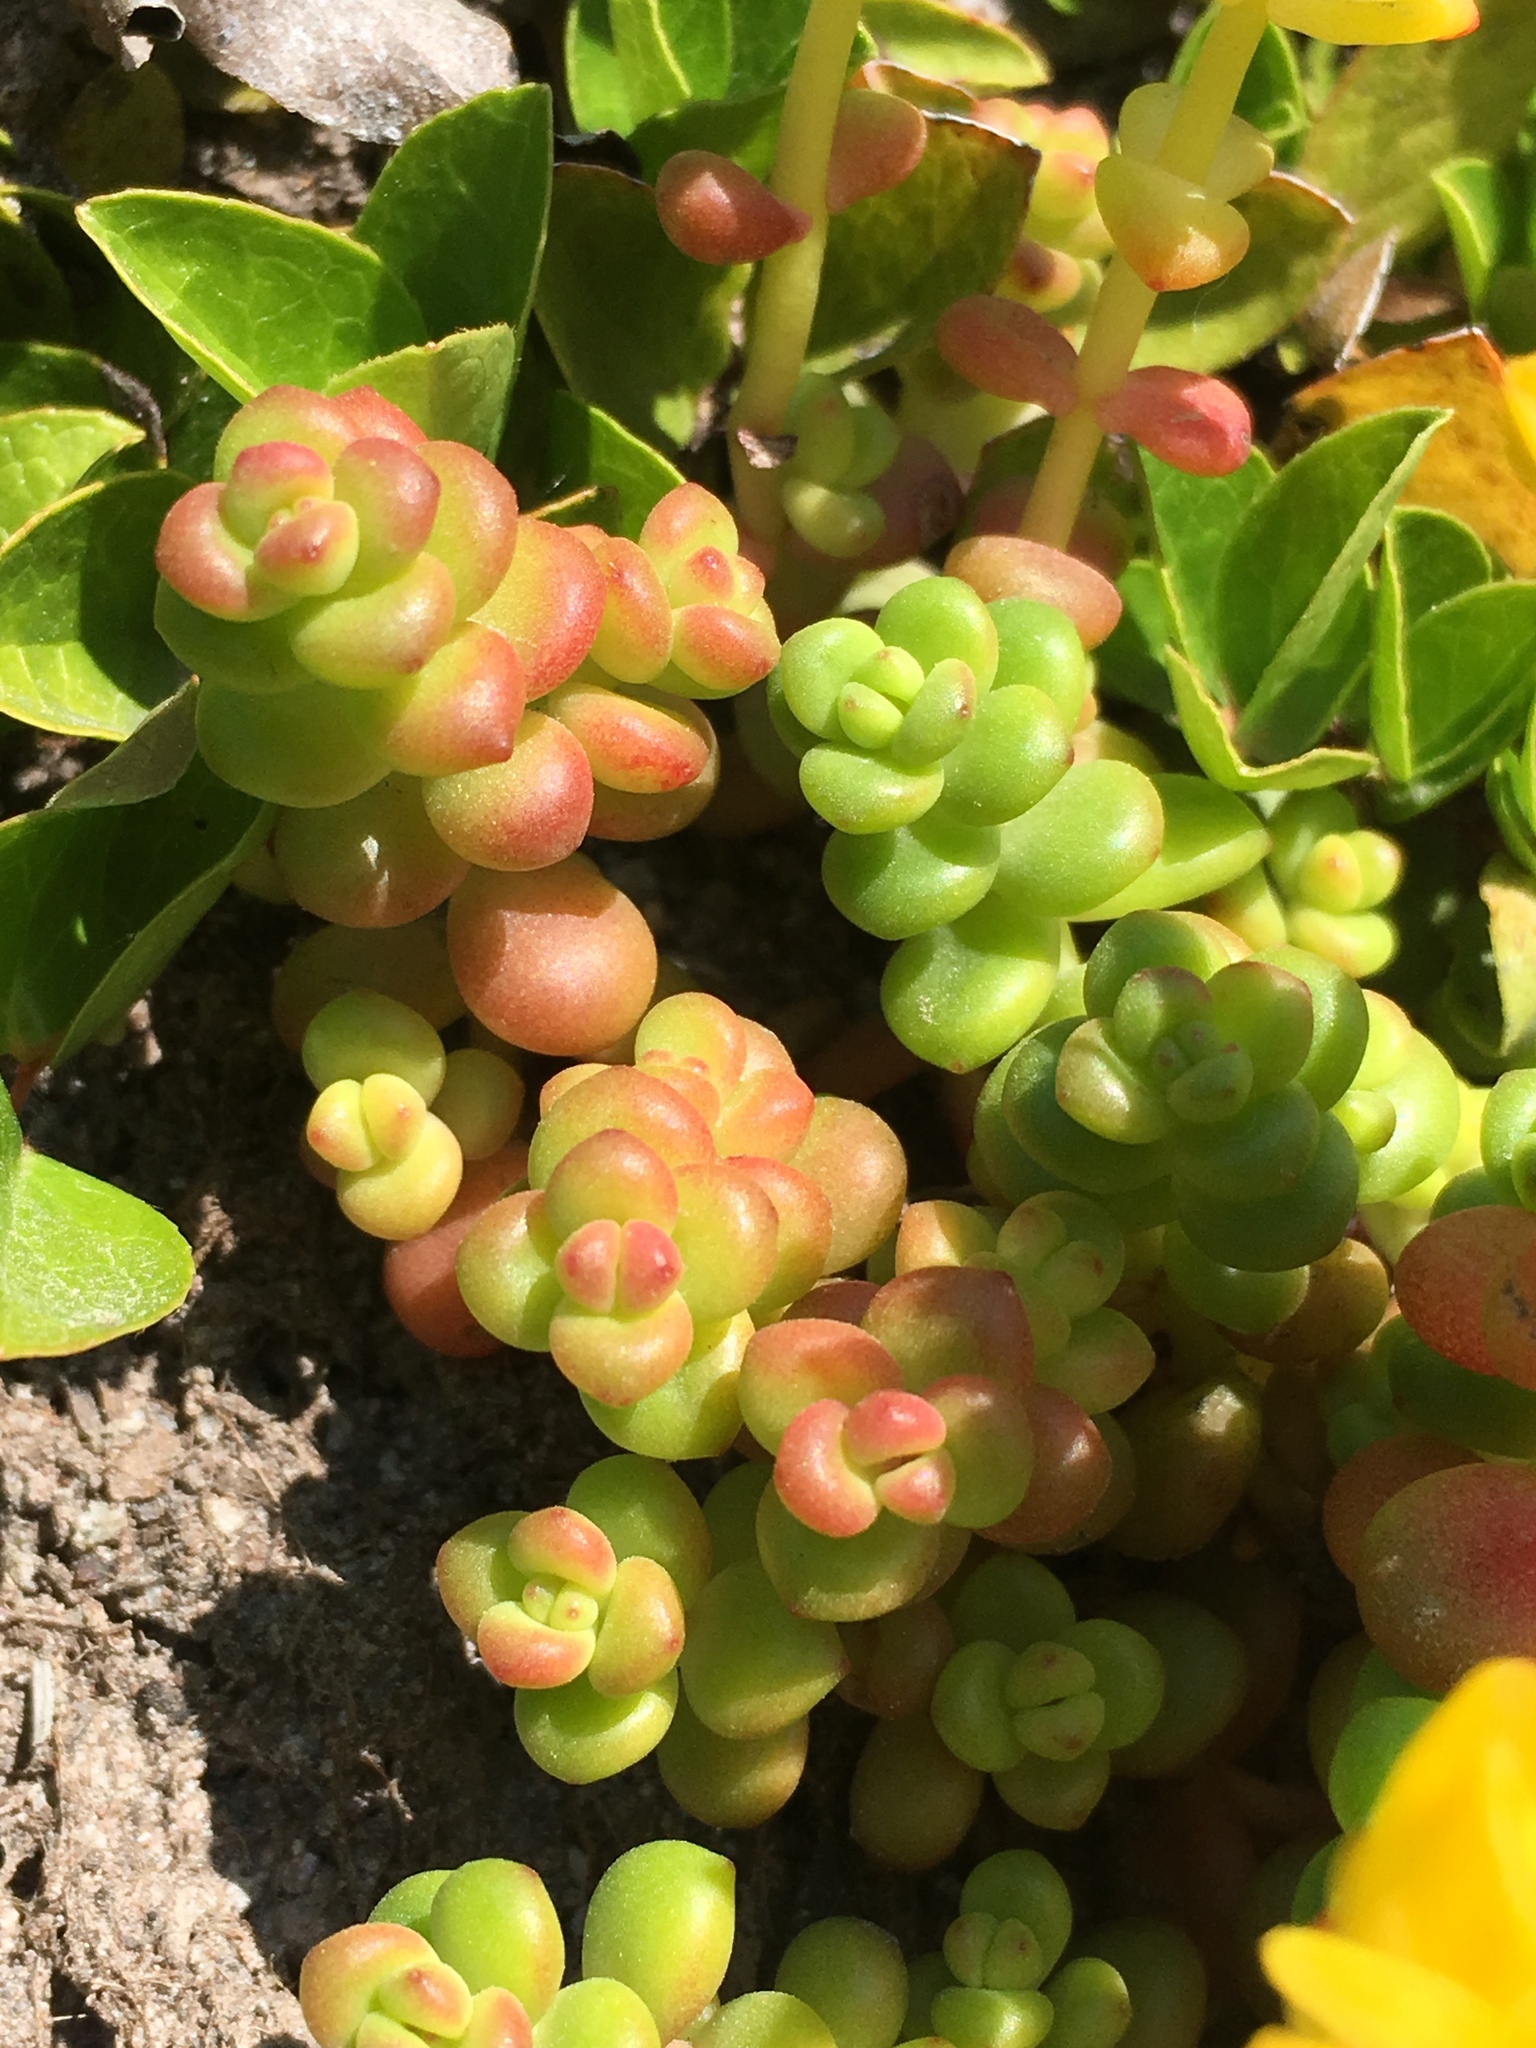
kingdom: Plantae
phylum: Tracheophyta
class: Magnoliopsida
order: Saxifragales
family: Crassulaceae
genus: Sedum
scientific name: Sedum divergens
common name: Cascade stonecrop
